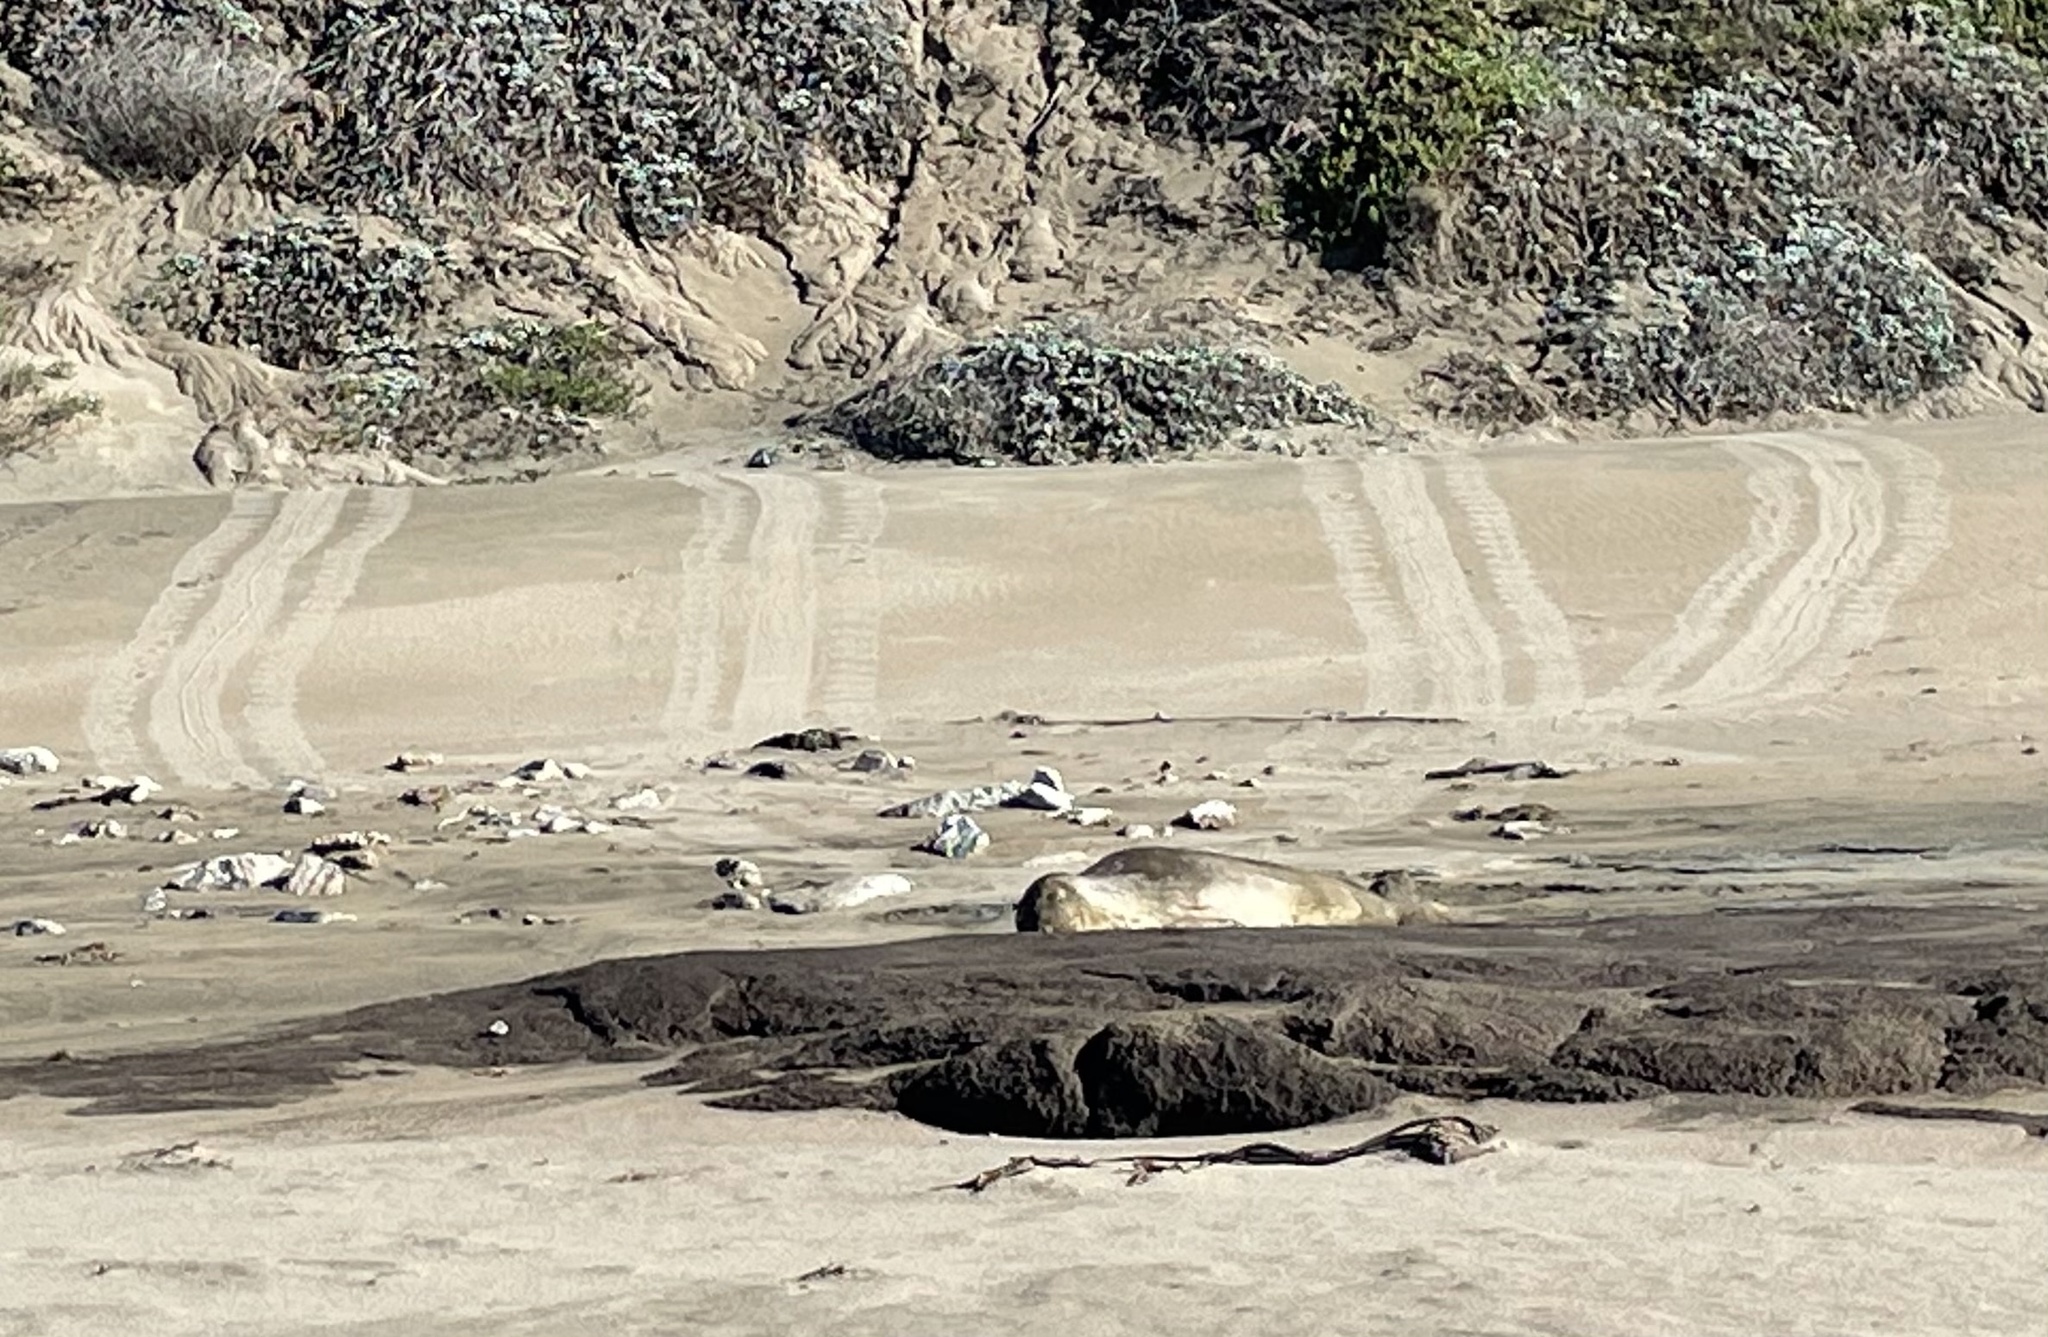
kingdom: Animalia
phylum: Chordata
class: Mammalia
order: Carnivora
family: Phocidae
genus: Mirounga
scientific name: Mirounga angustirostris
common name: Northern elephant seal
